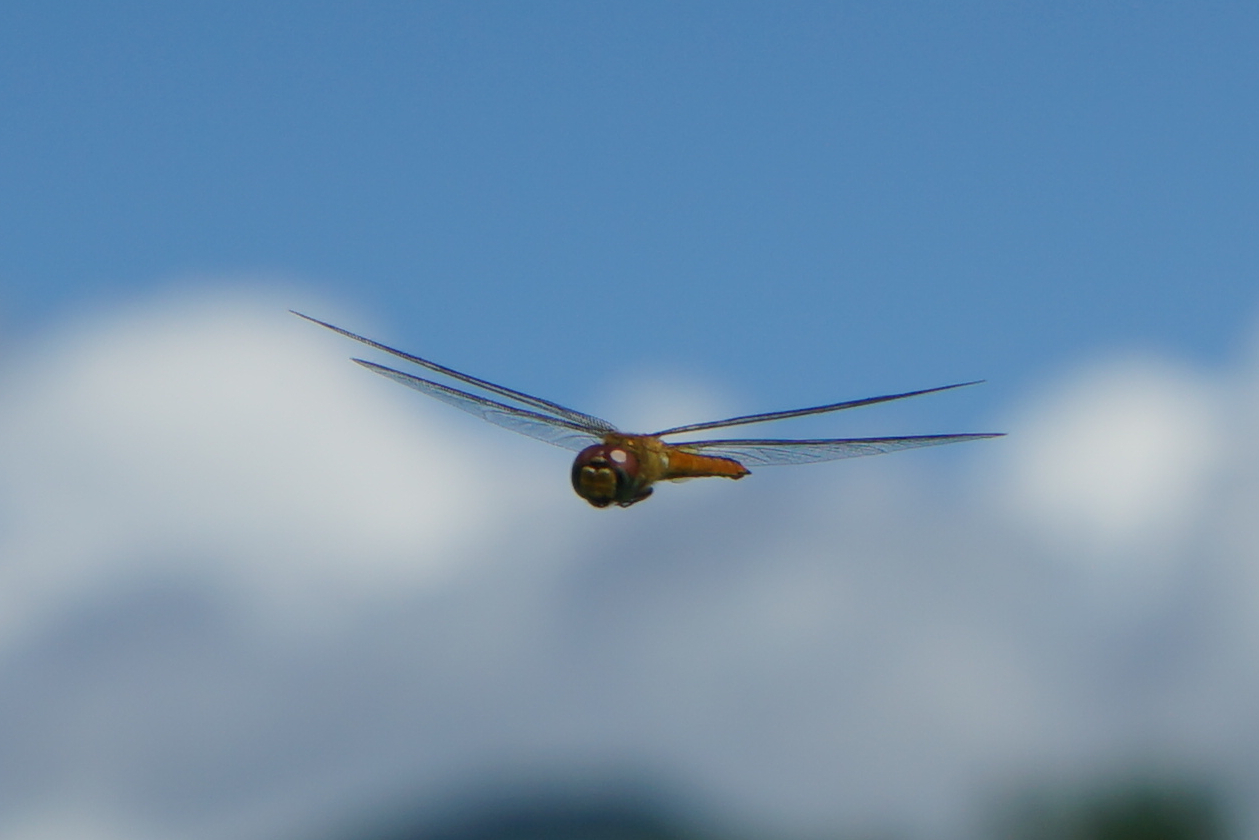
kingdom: Animalia
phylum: Arthropoda
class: Insecta
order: Odonata
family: Libellulidae
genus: Pantala
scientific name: Pantala flavescens
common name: Wandering glider
